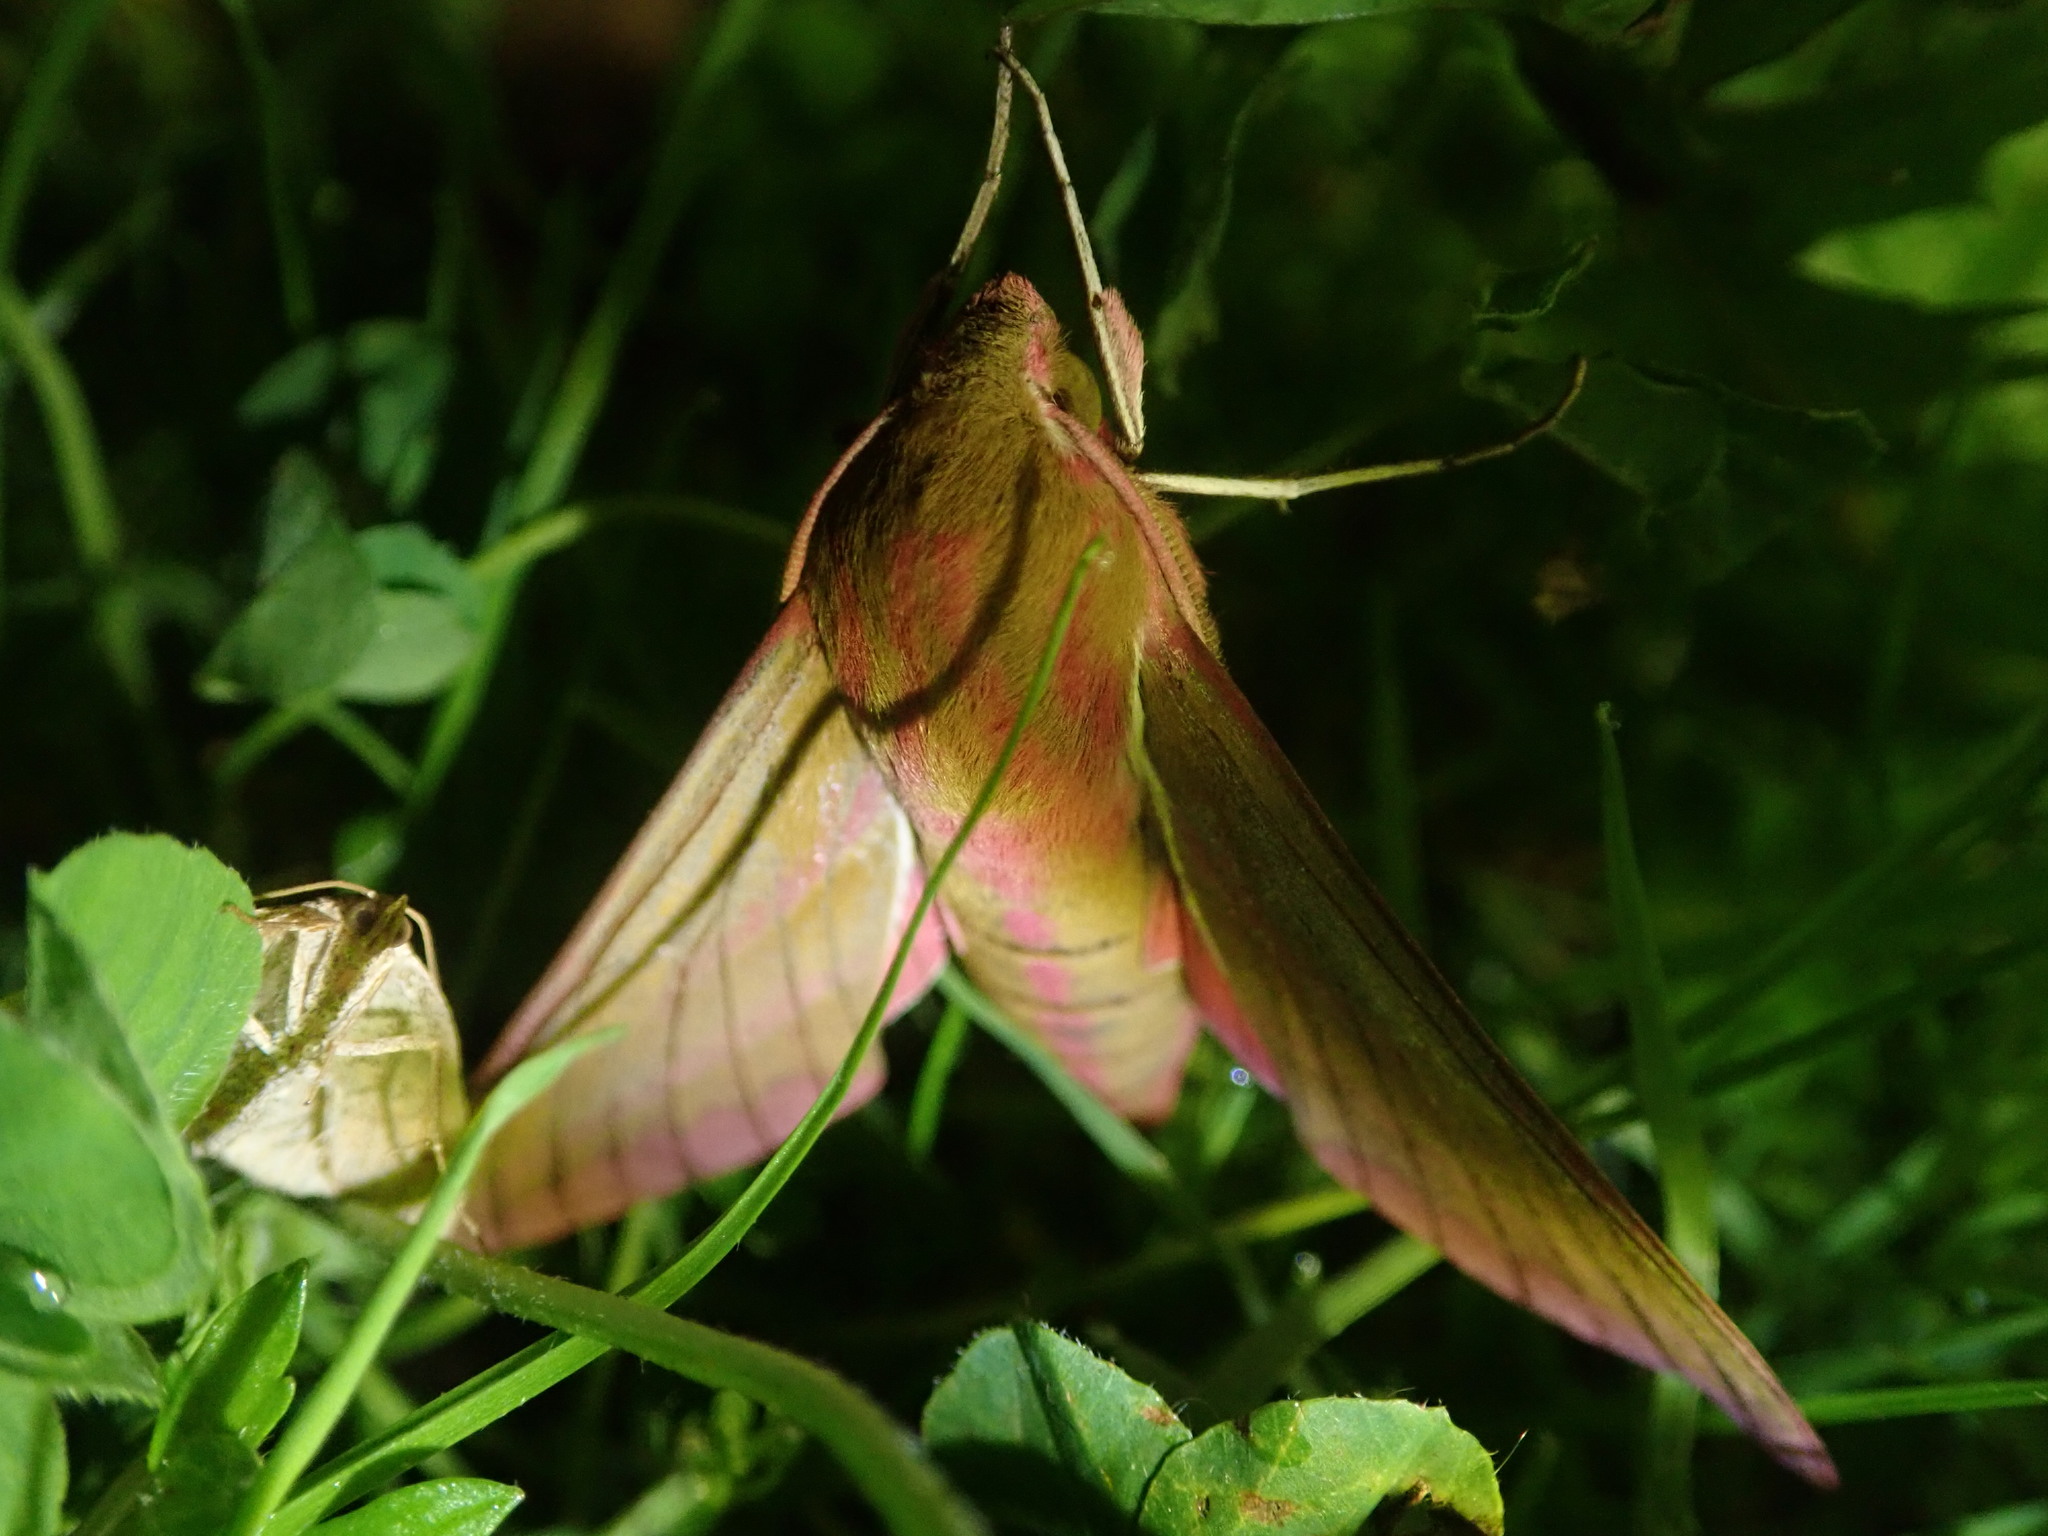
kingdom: Animalia
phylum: Arthropoda
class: Insecta
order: Lepidoptera
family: Sphingidae
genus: Deilephila
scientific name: Deilephila elpenor
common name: Elephant hawk-moth
